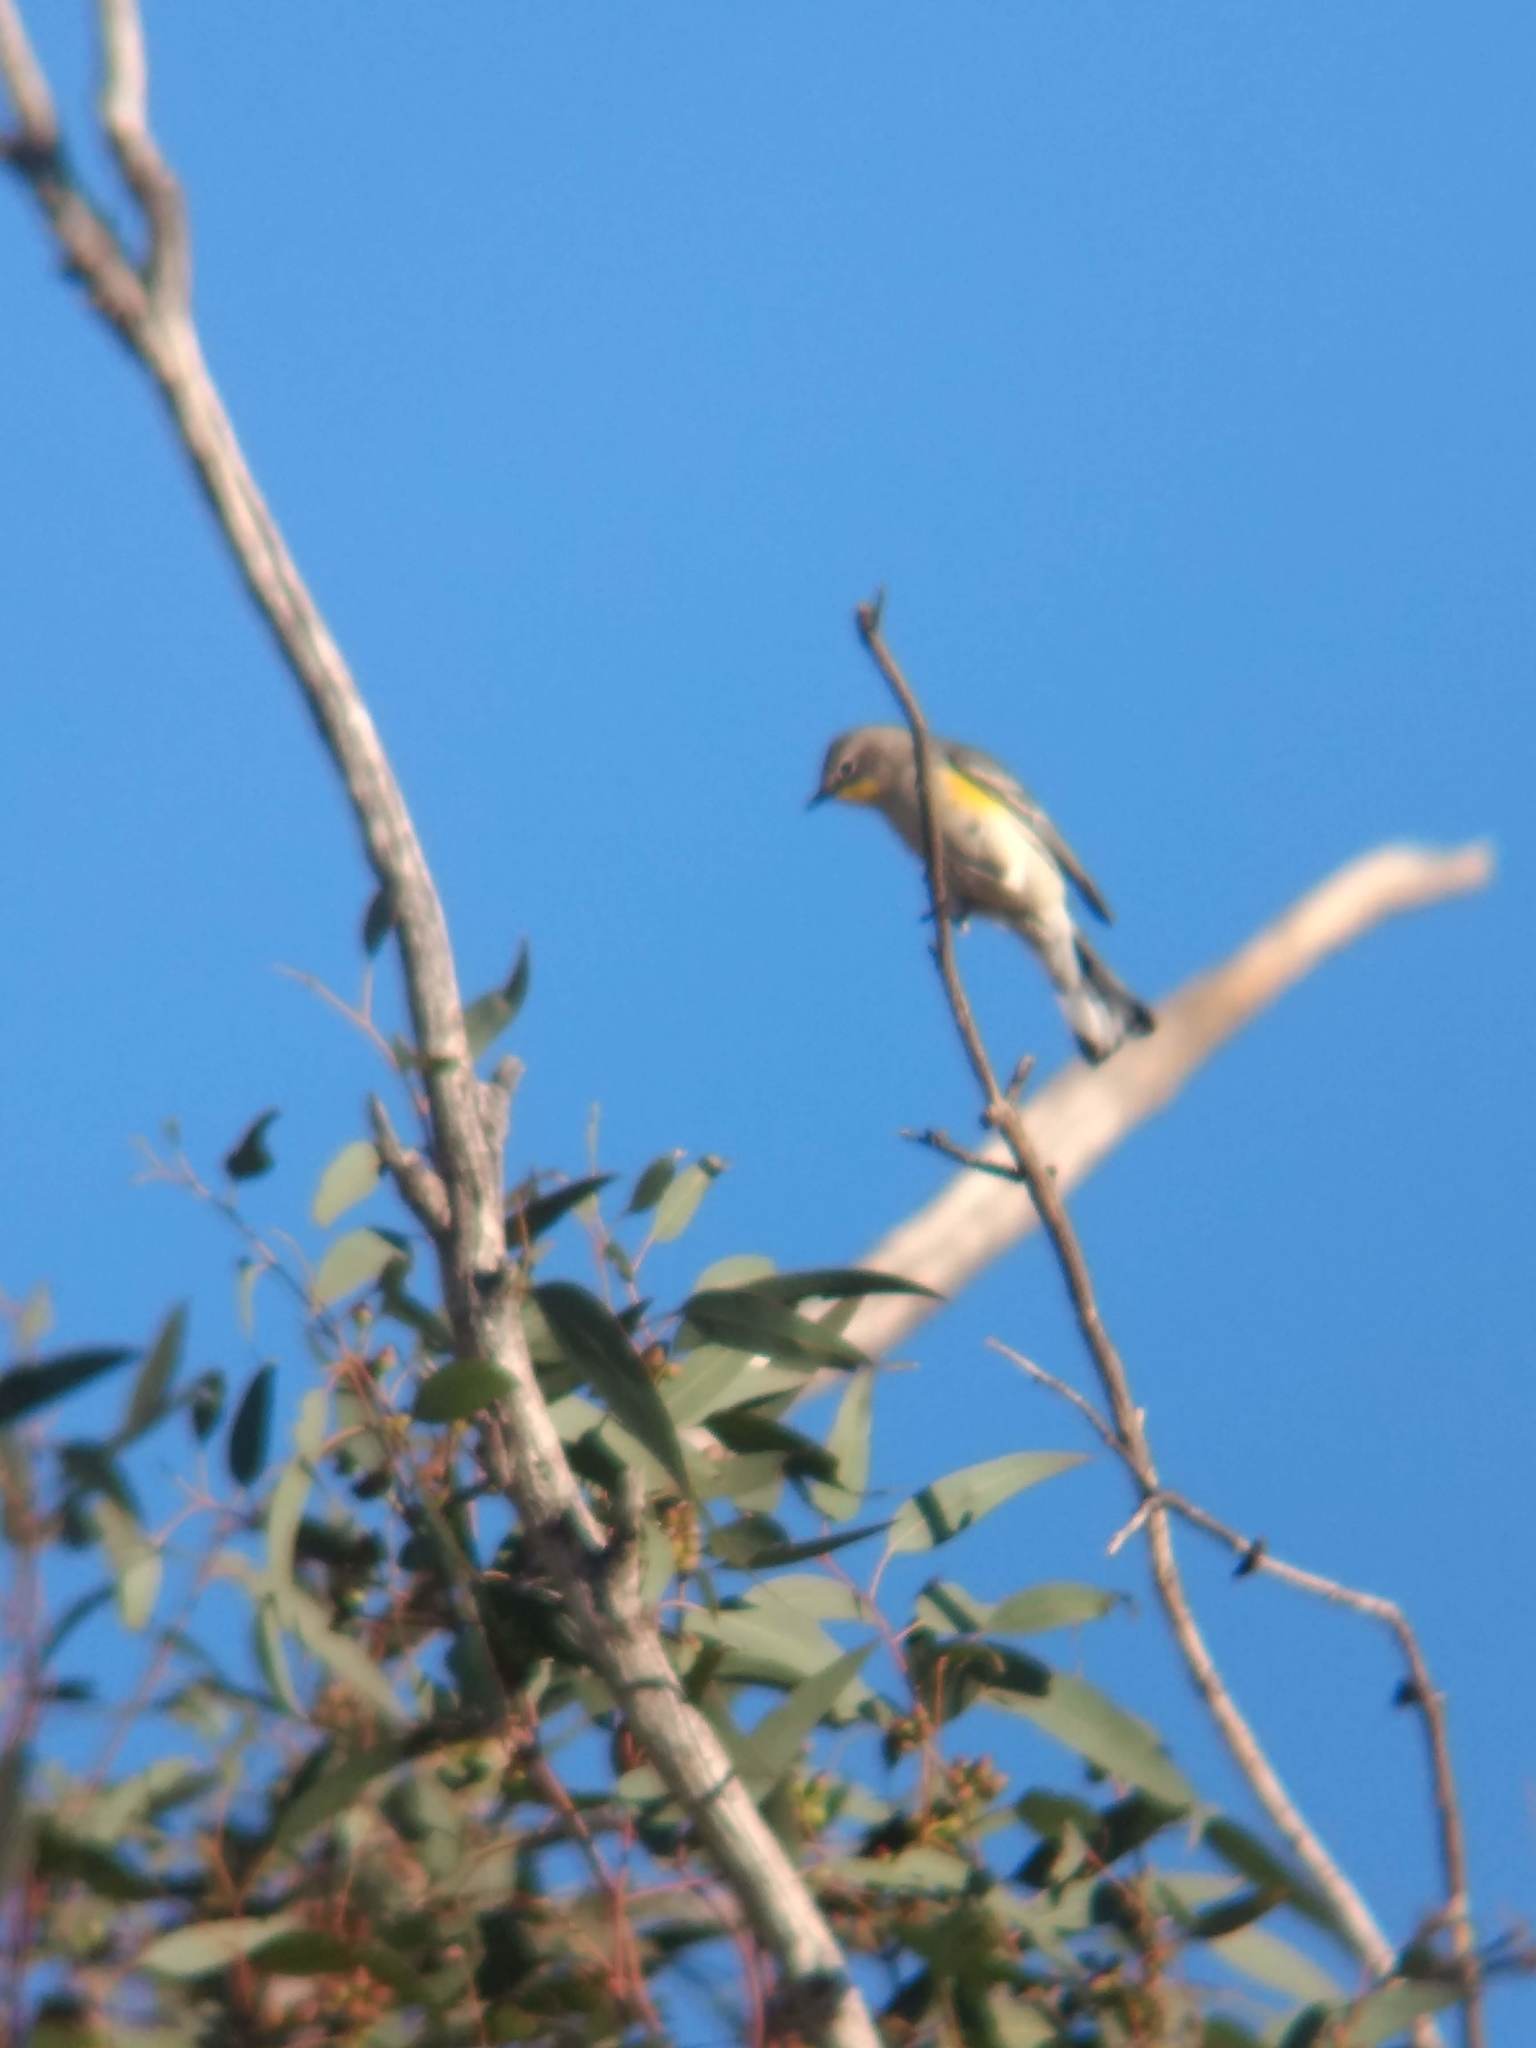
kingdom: Animalia
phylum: Chordata
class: Aves
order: Passeriformes
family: Parulidae
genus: Setophaga
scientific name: Setophaga coronata
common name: Myrtle warbler
